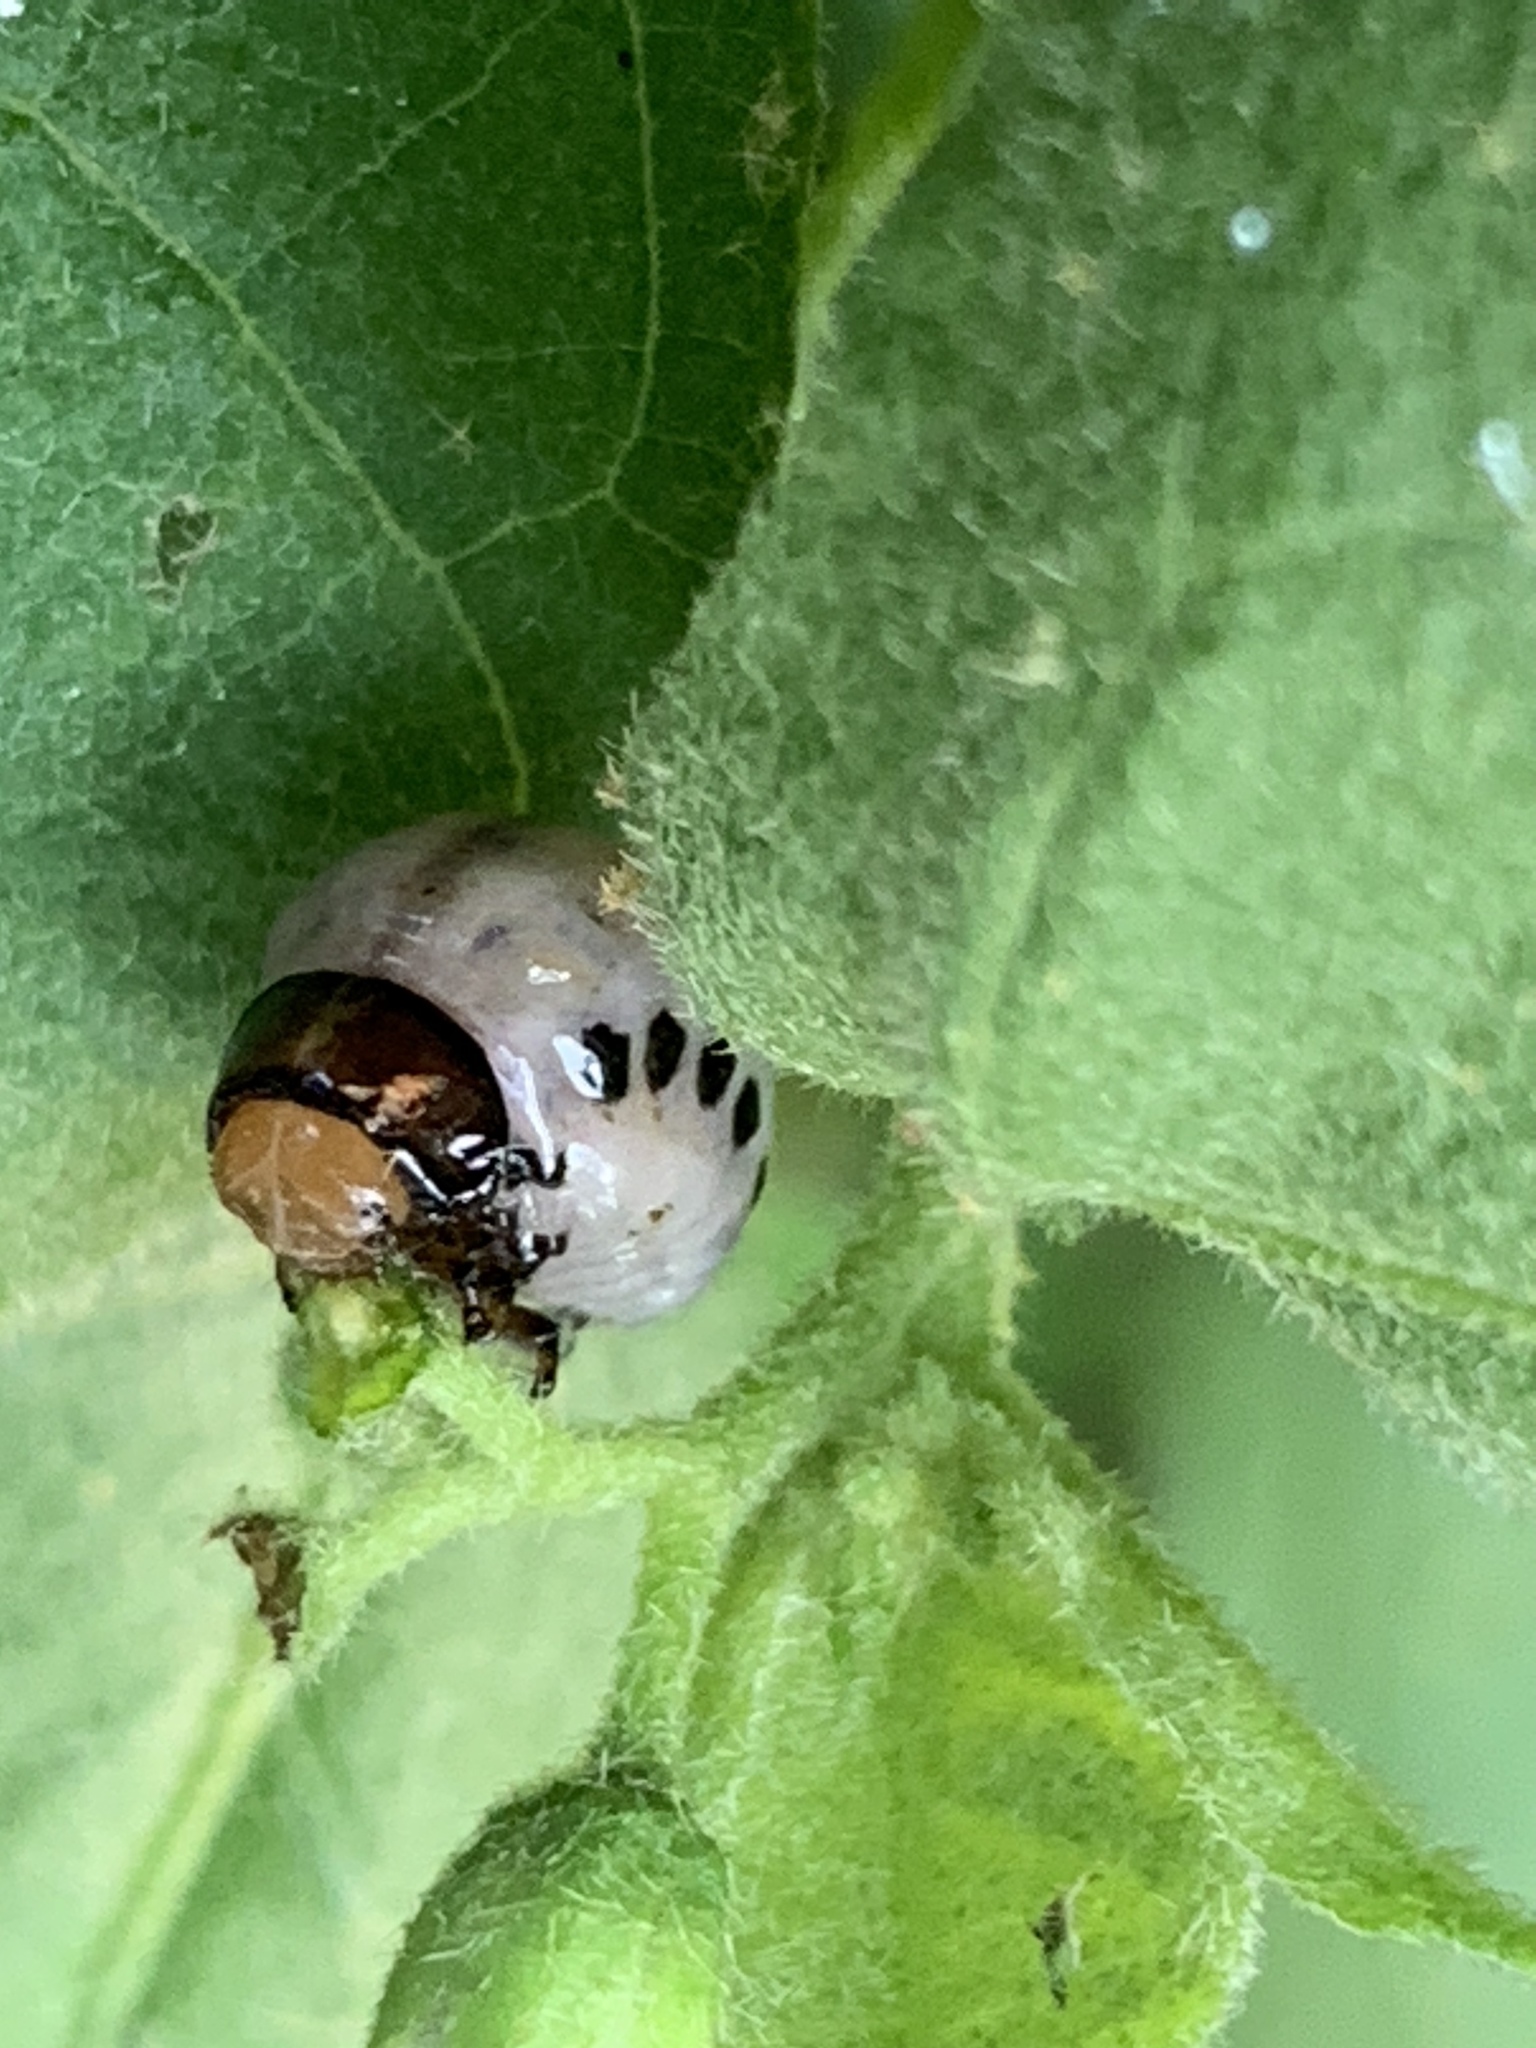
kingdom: Animalia
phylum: Arthropoda
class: Insecta
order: Coleoptera
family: Chrysomelidae
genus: Leptinotarsa
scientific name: Leptinotarsa juncta
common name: False potato beetle
